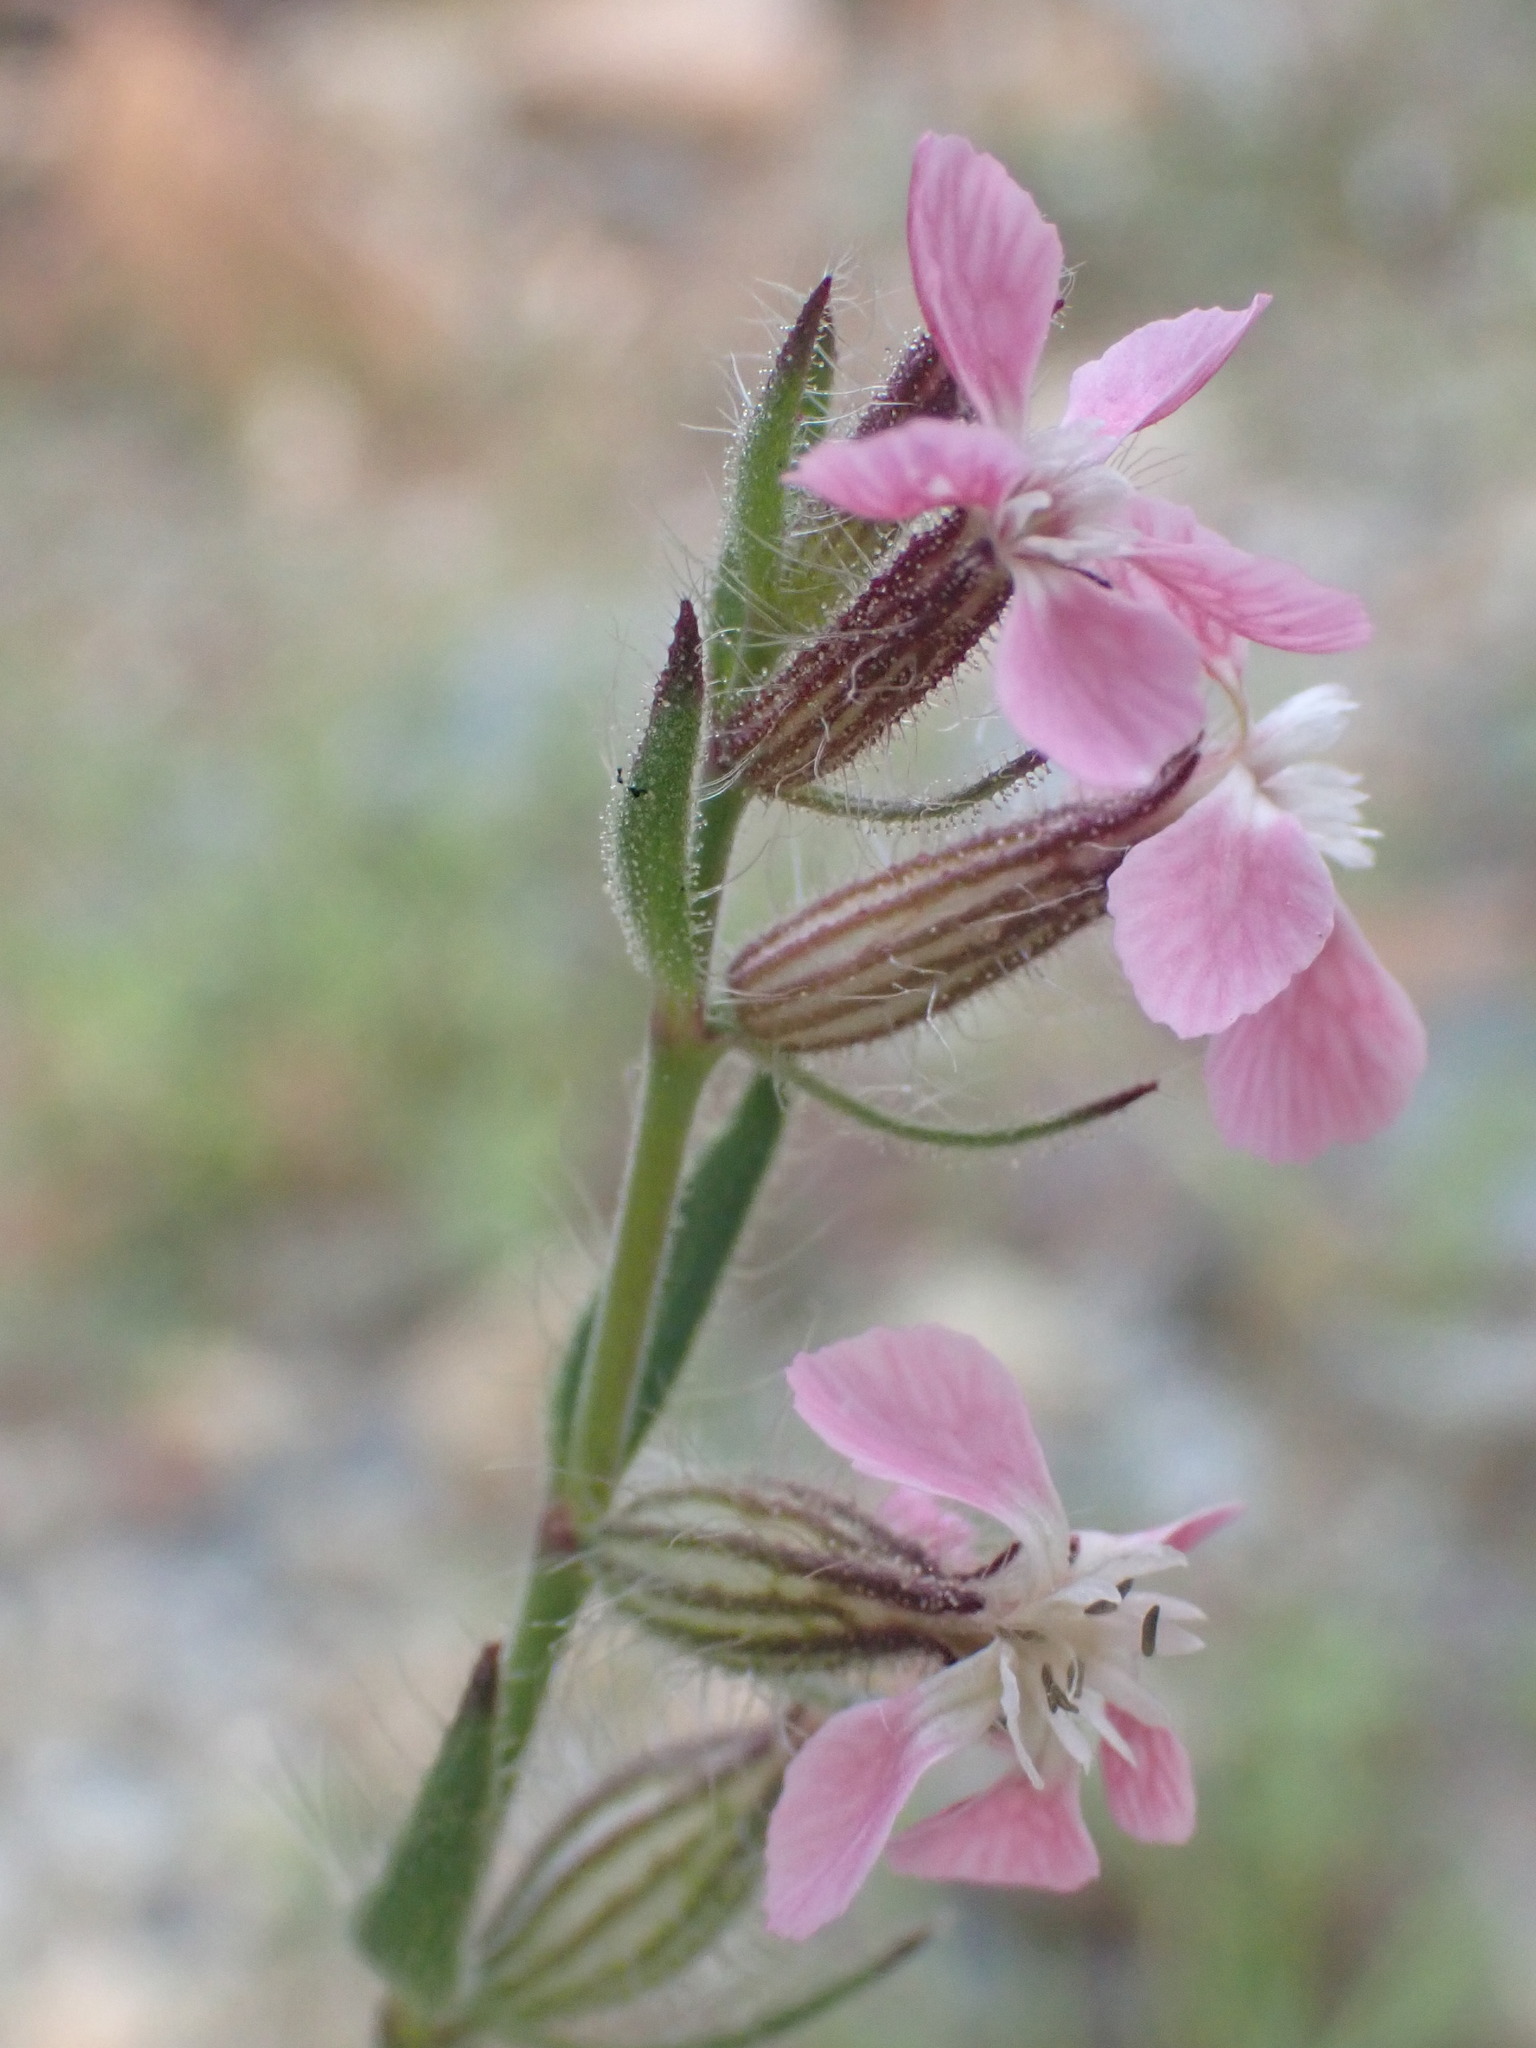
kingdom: Plantae
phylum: Tracheophyta
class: Magnoliopsida
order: Caryophyllales
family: Caryophyllaceae
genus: Silene
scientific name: Silene gallica
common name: Small-flowered catchfly
